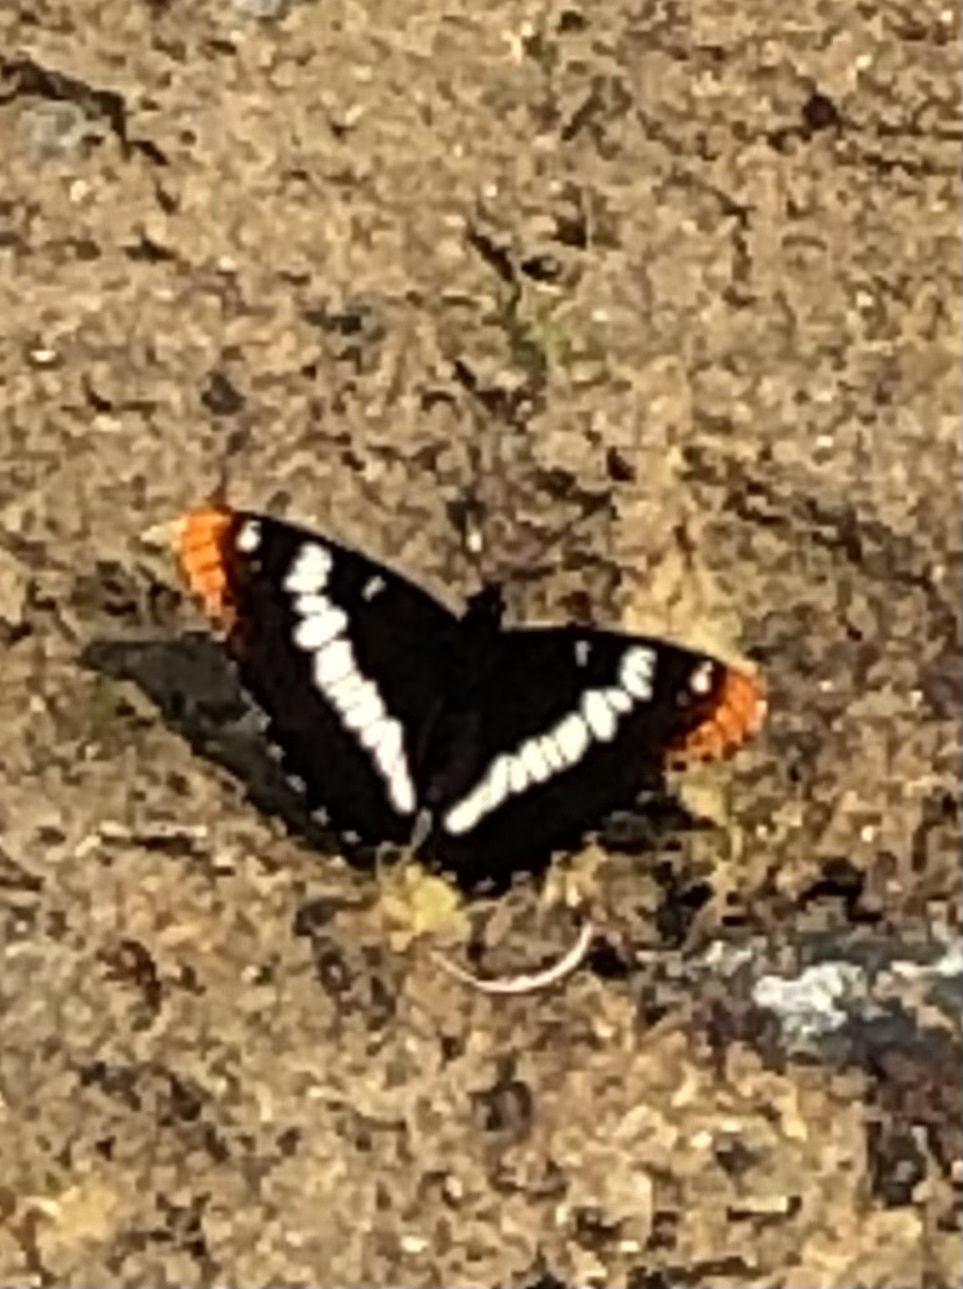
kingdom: Animalia
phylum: Arthropoda
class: Insecta
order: Lepidoptera
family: Nymphalidae
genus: Limenitis
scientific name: Limenitis lorquini
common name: Lorquin's admiral
